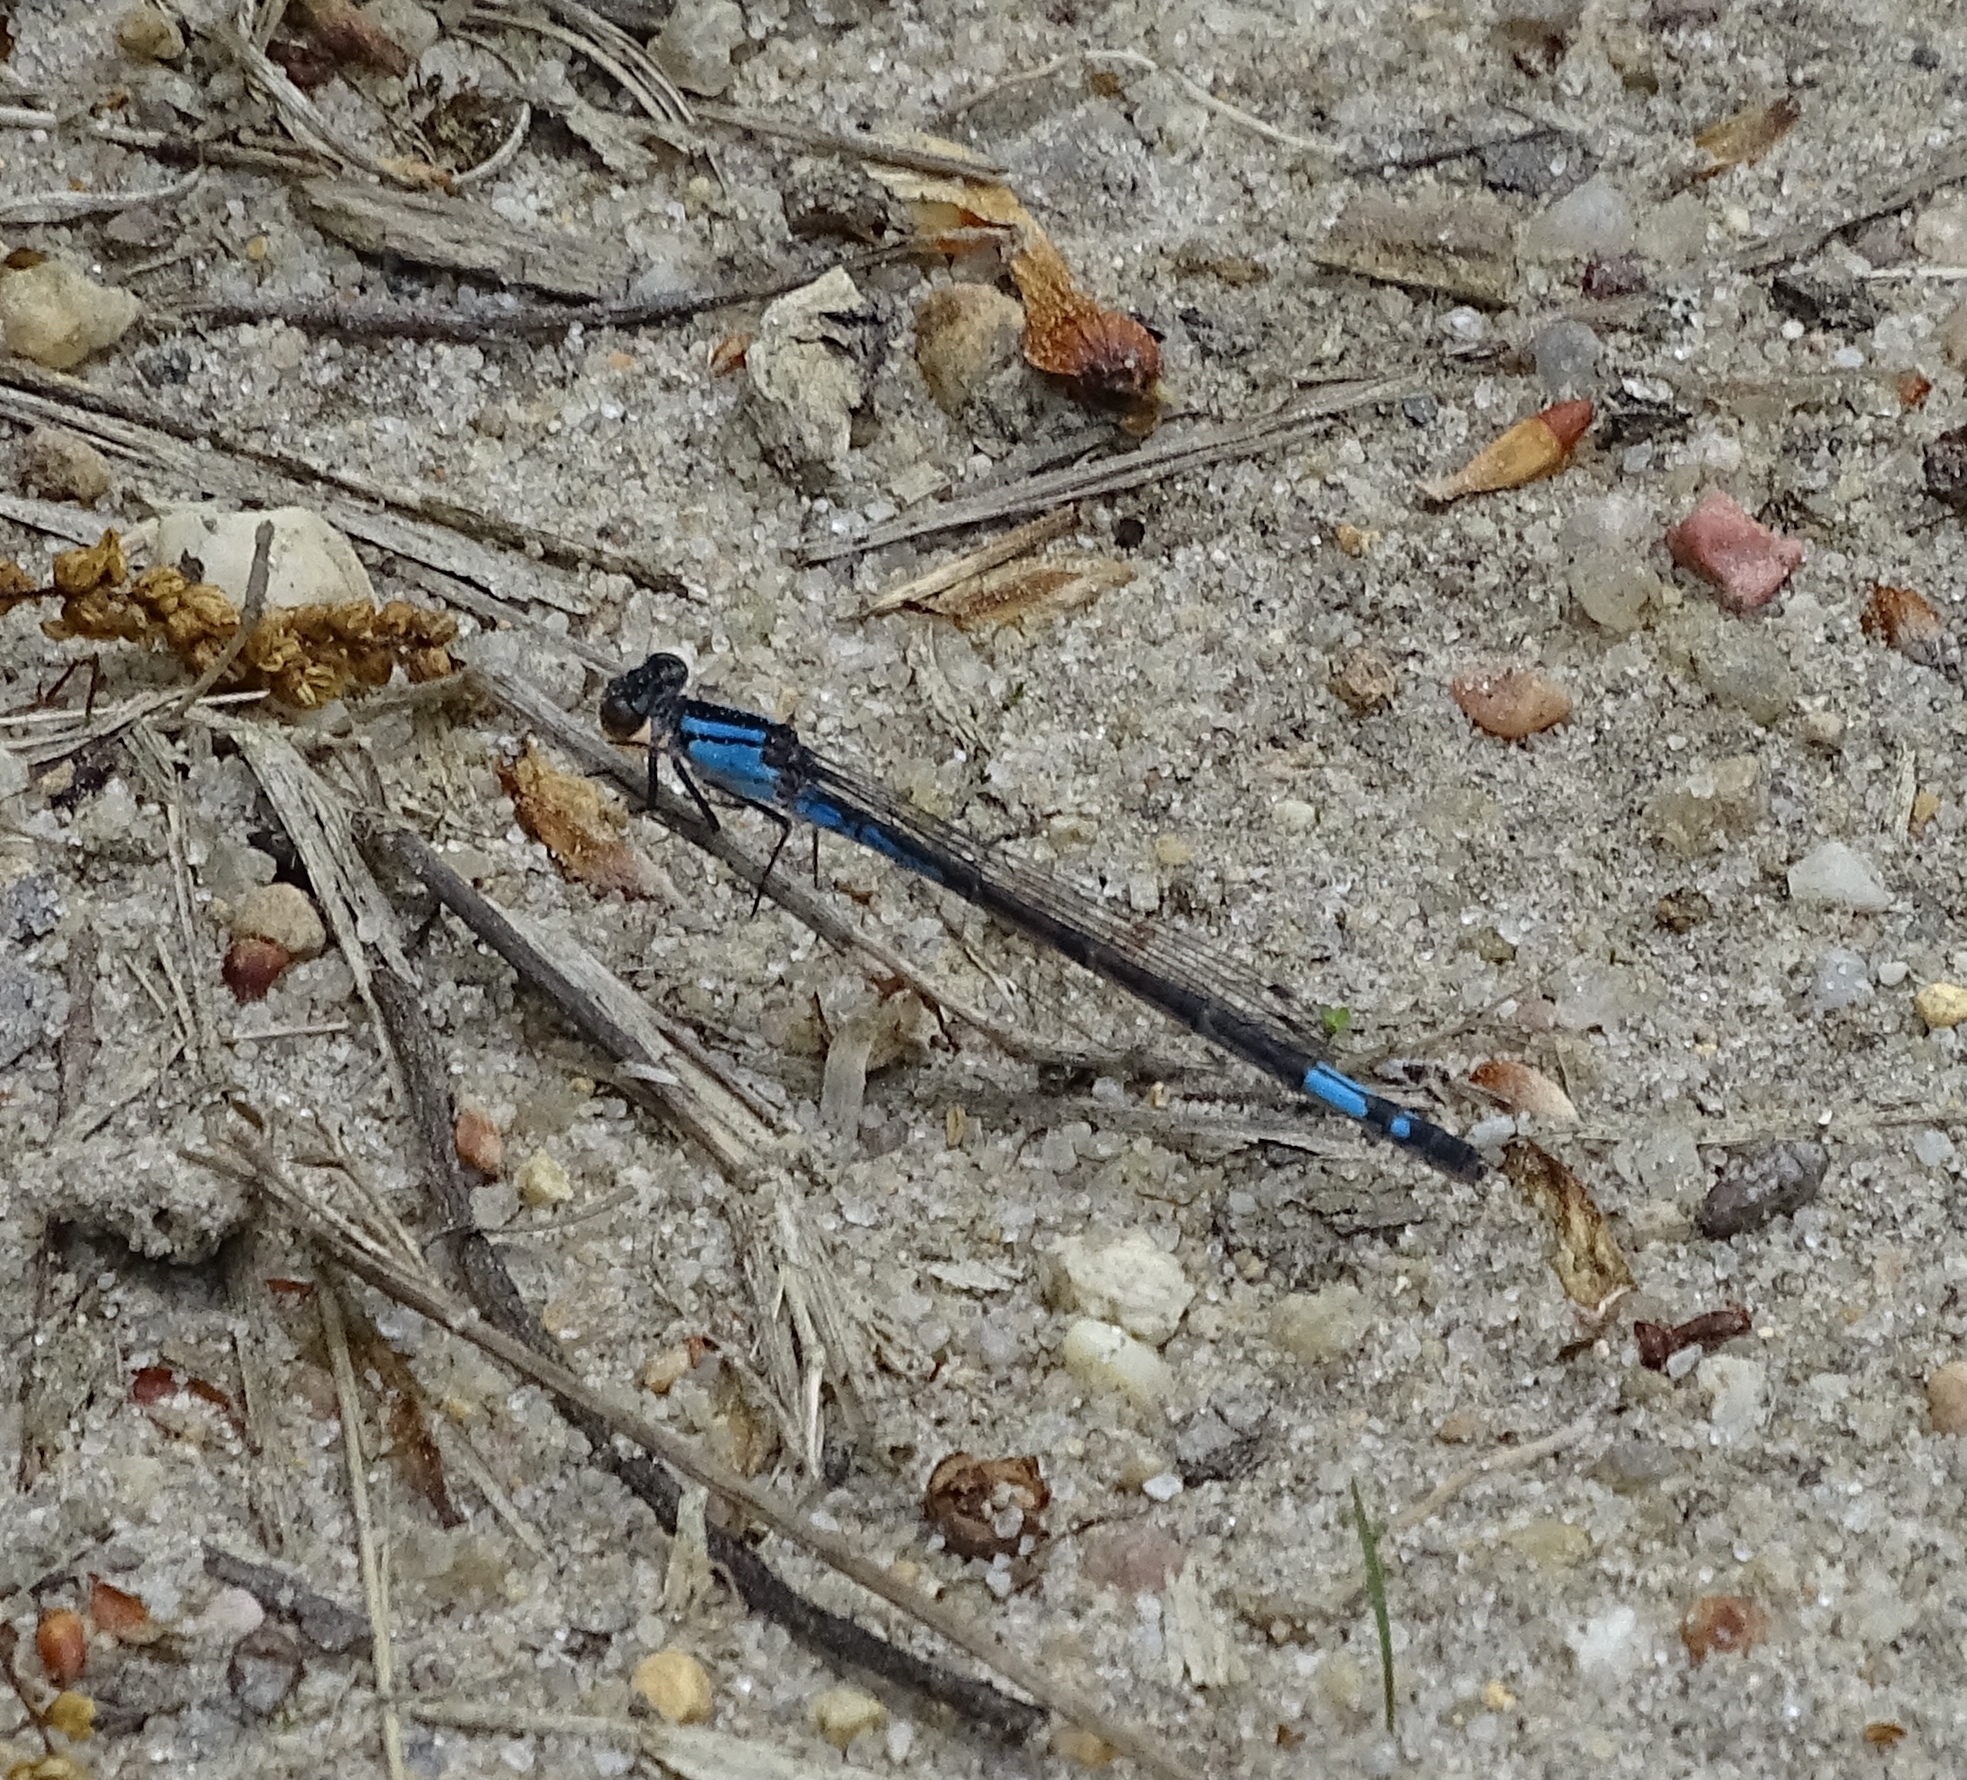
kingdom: Animalia
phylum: Arthropoda
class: Insecta
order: Odonata
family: Coenagrionidae
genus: Enallagma
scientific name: Enallagma aspersum
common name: Azure bluet
